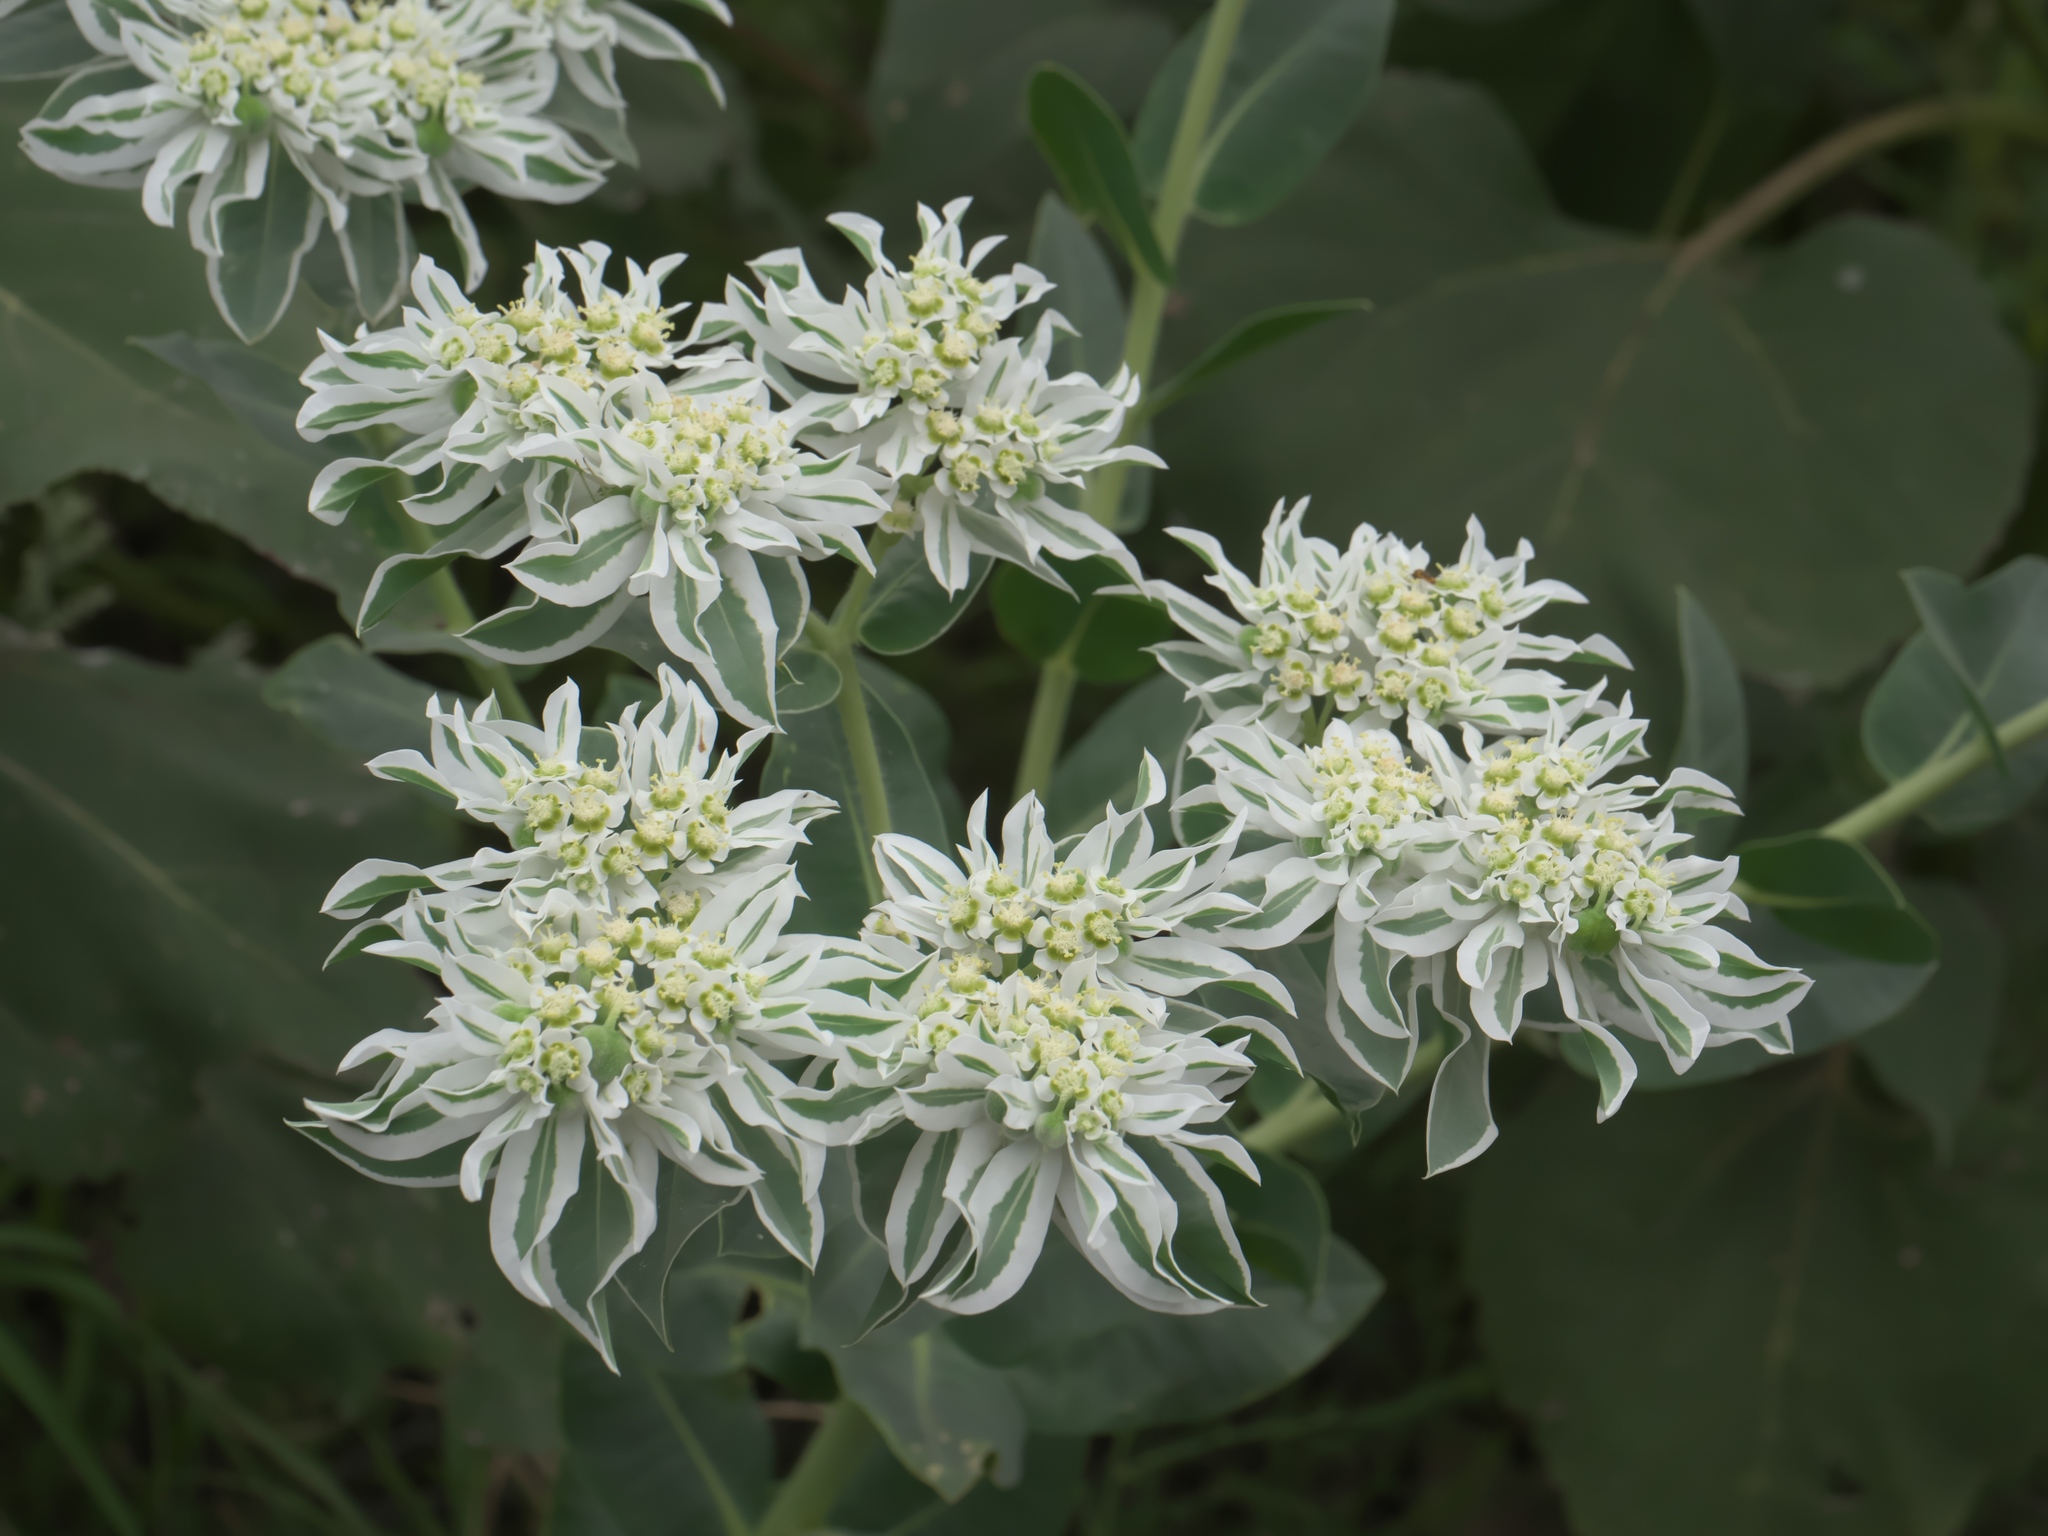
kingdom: Plantae
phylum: Tracheophyta
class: Magnoliopsida
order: Malpighiales
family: Euphorbiaceae
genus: Euphorbia
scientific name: Euphorbia marginata
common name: Ghostweed
